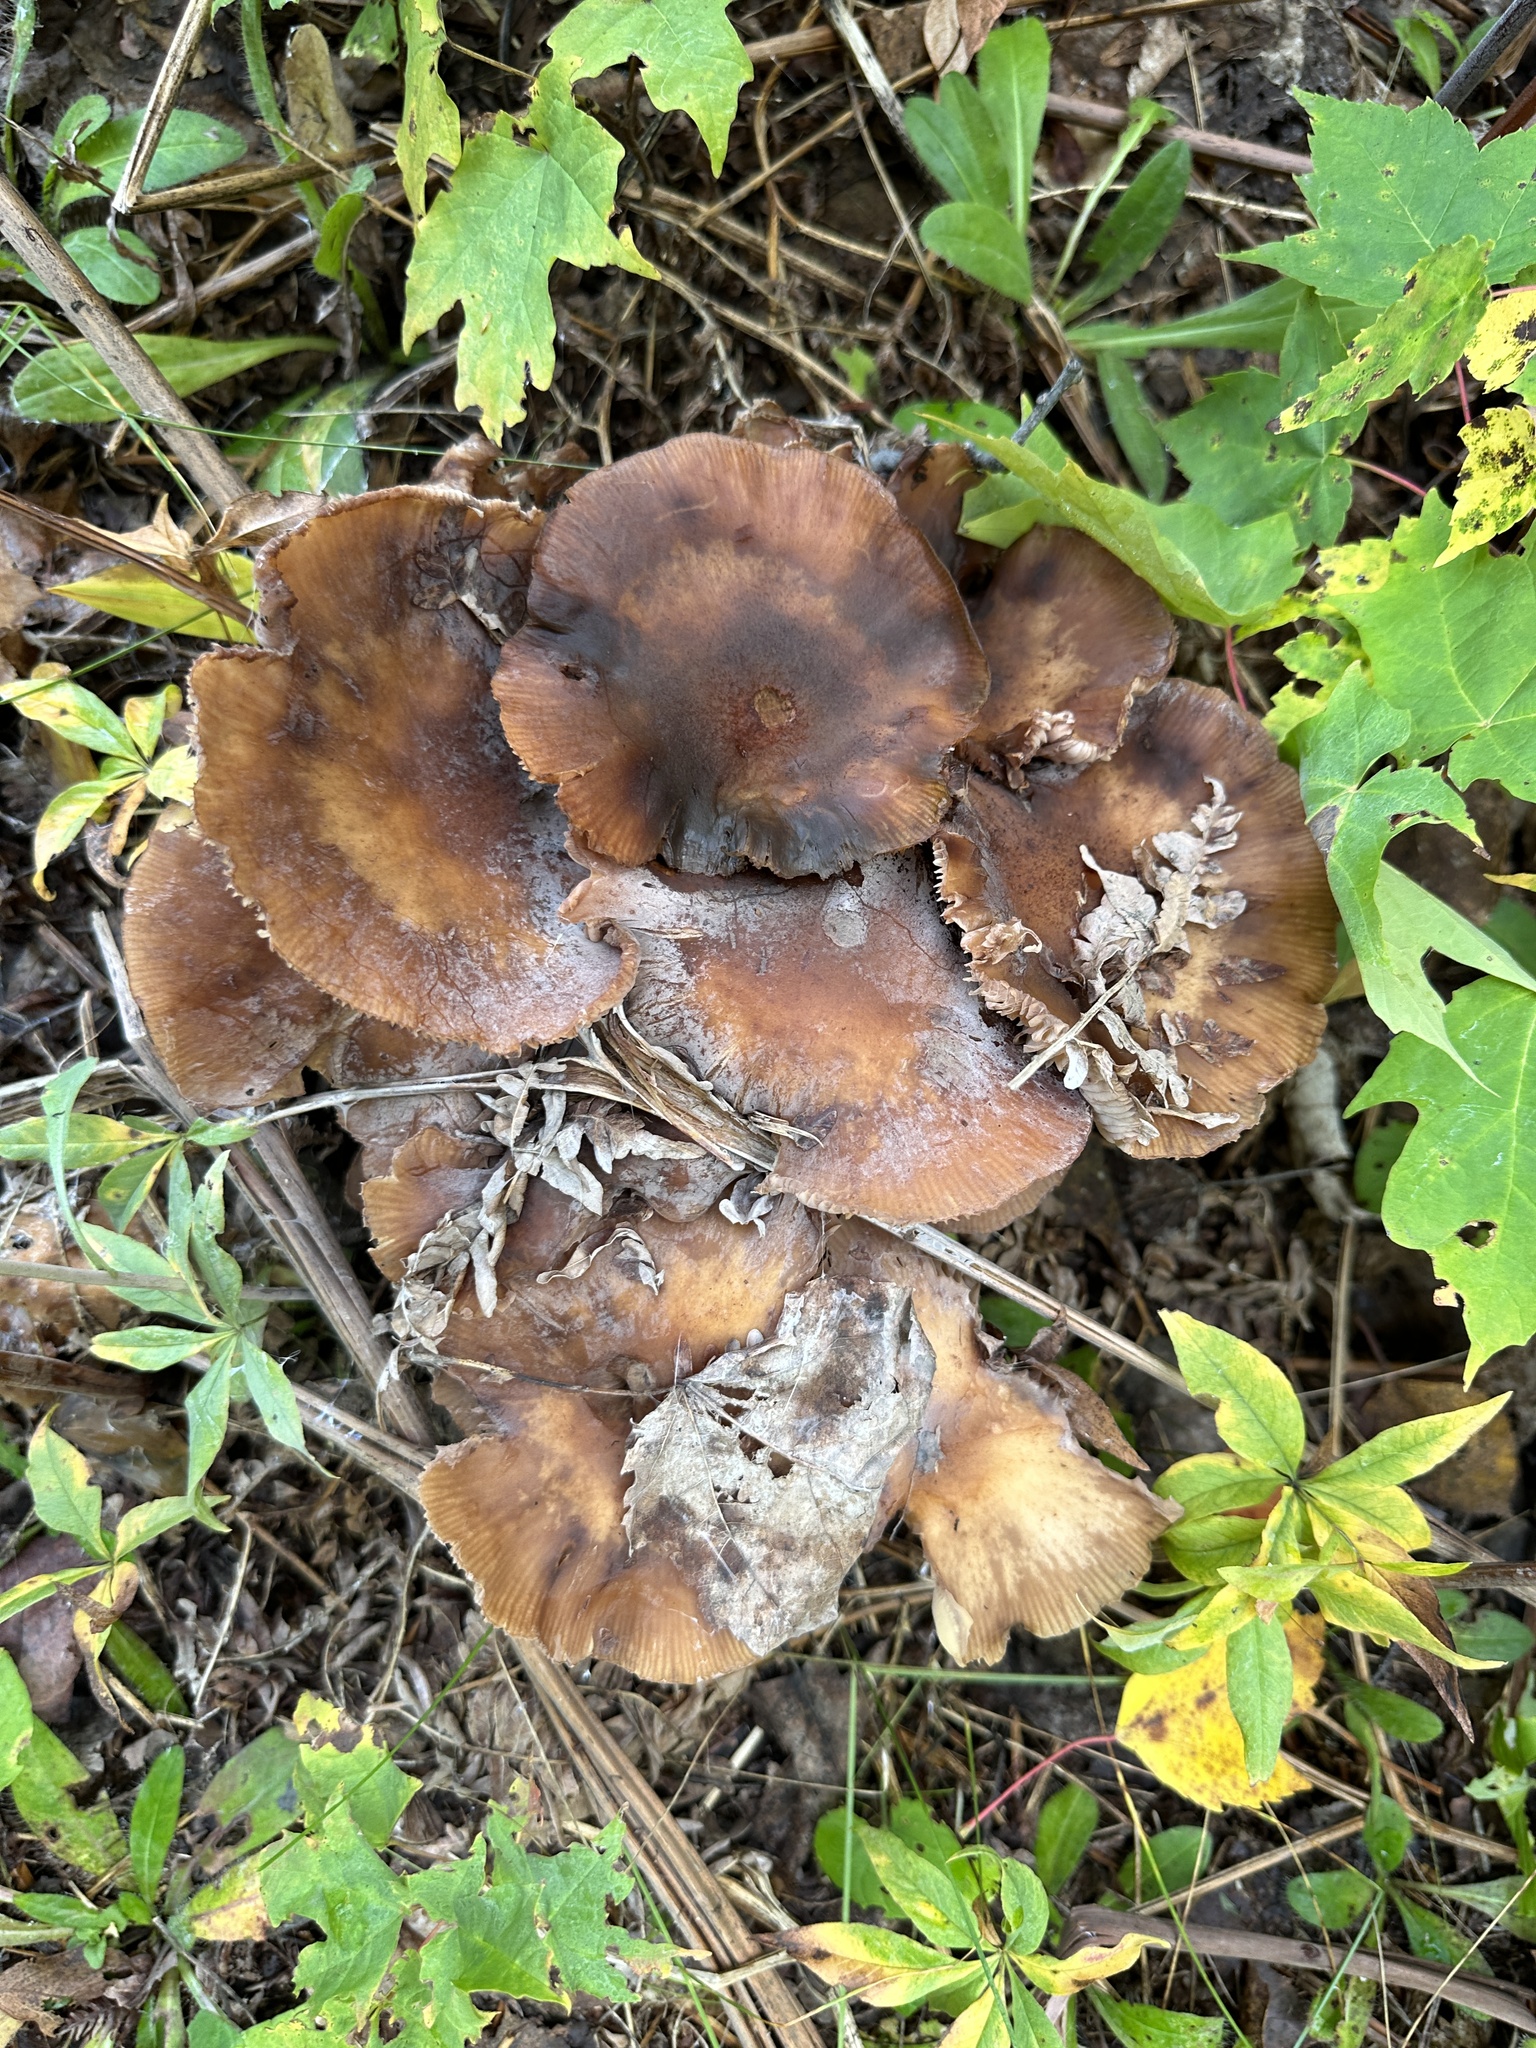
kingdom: Fungi
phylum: Basidiomycota
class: Agaricomycetes
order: Agaricales
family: Physalacriaceae
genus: Armillaria
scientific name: Armillaria mellea
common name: Honey fungus
